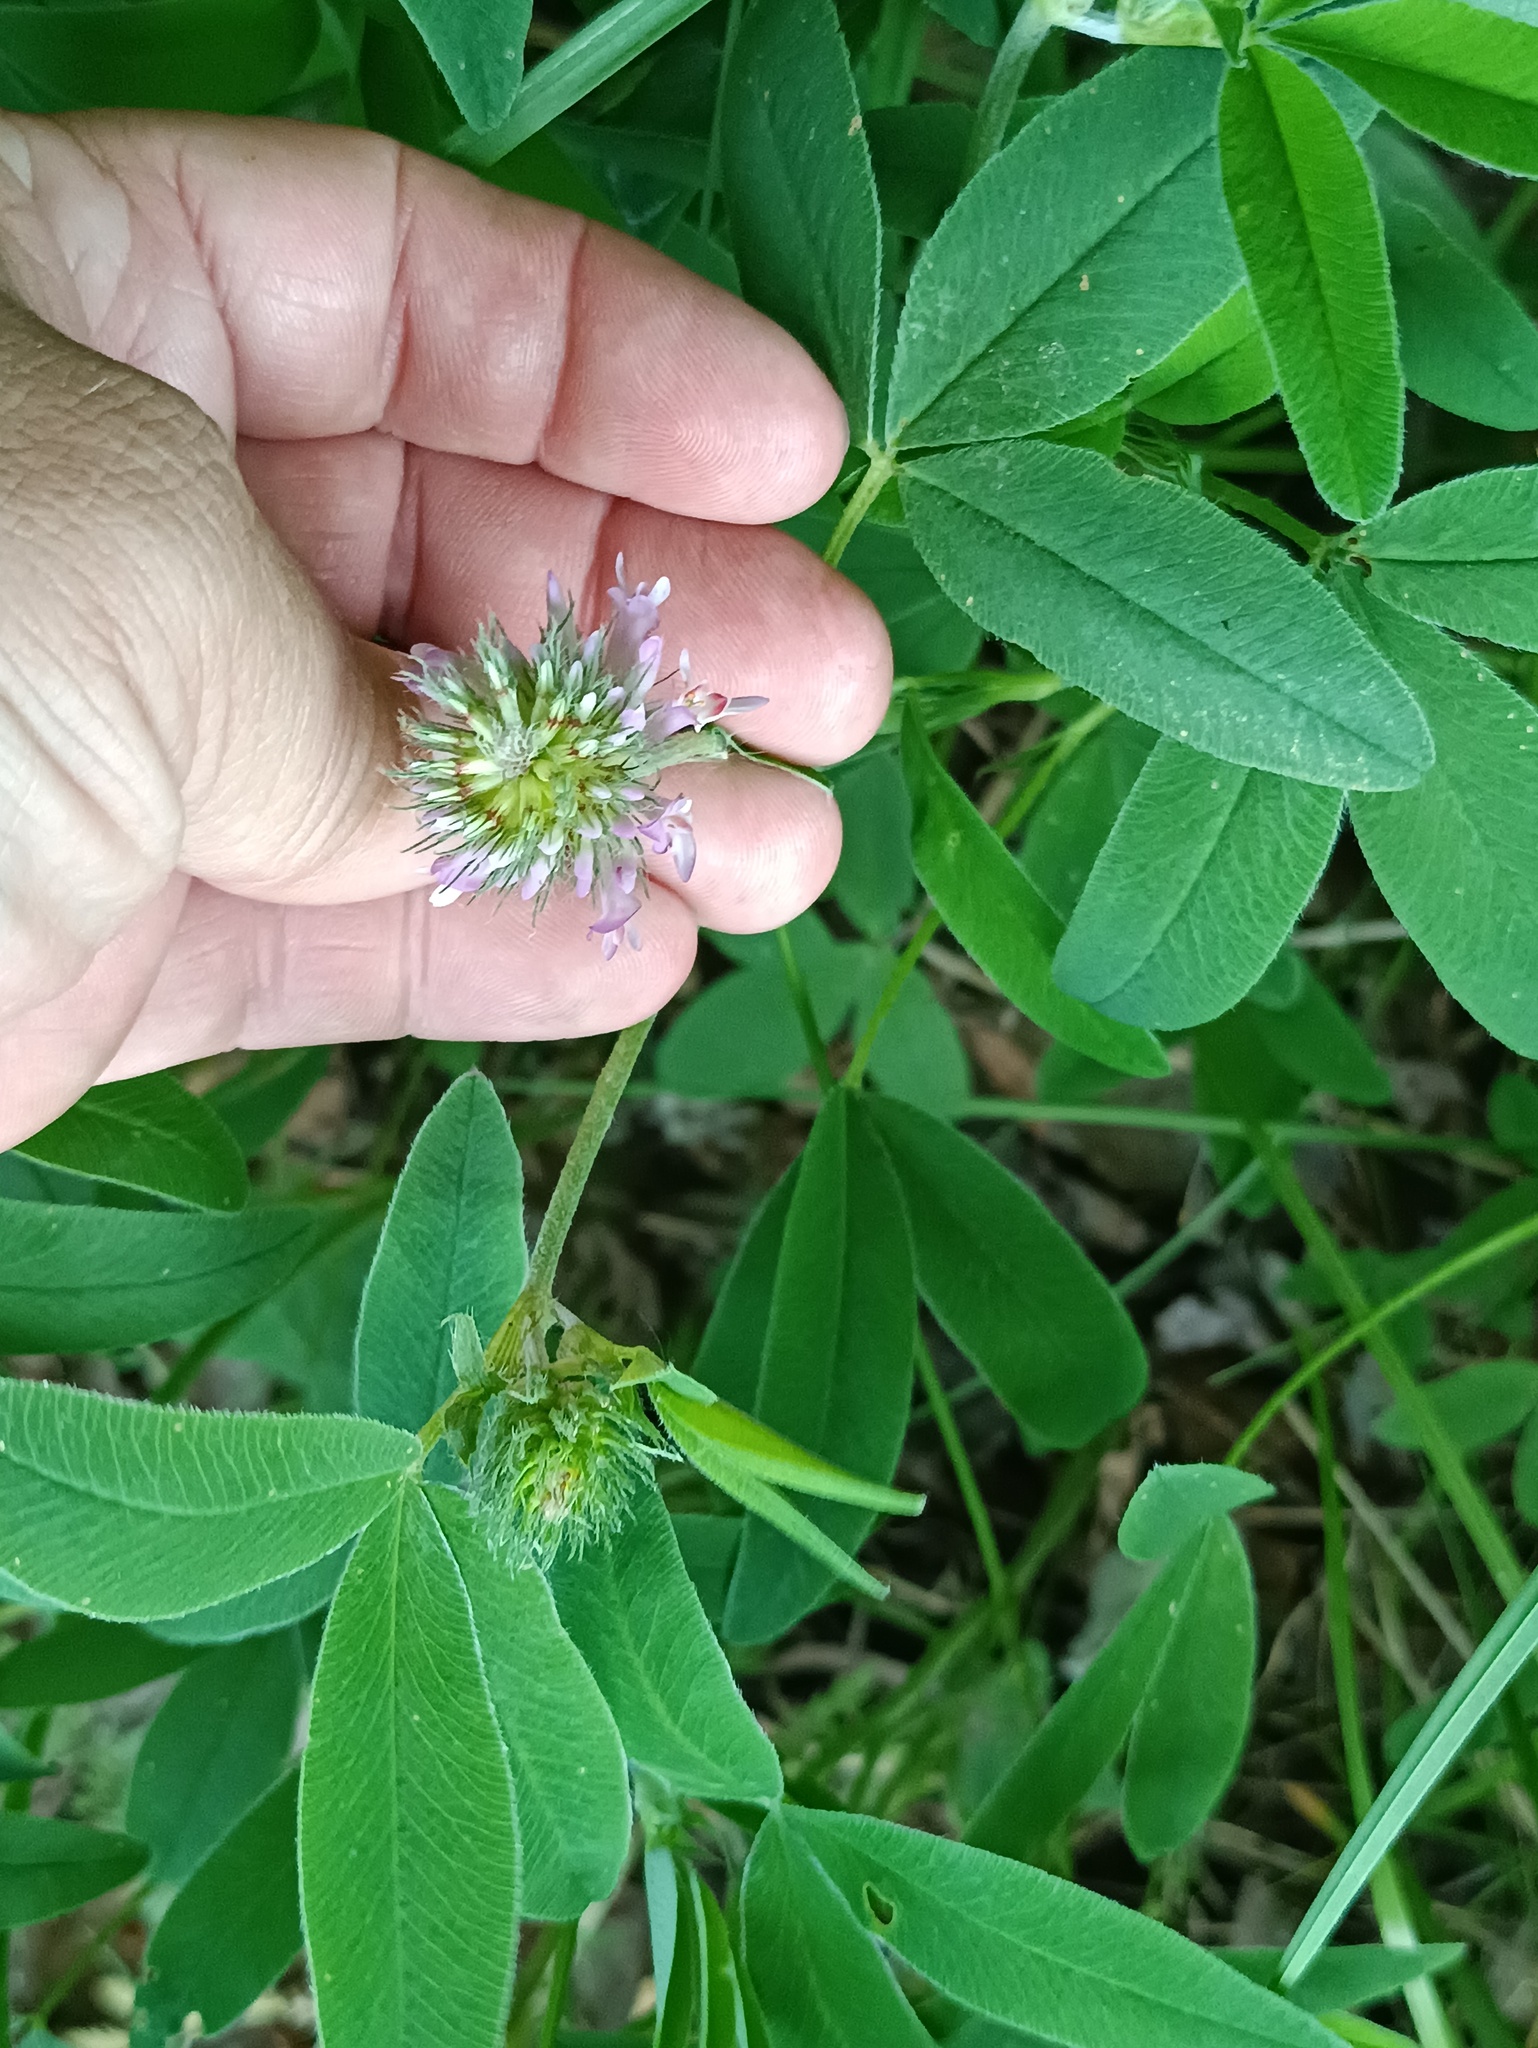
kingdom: Plantae
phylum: Tracheophyta
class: Magnoliopsida
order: Fabales
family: Fabaceae
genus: Trifolium
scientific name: Trifolium medium
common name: Zigzag clover
